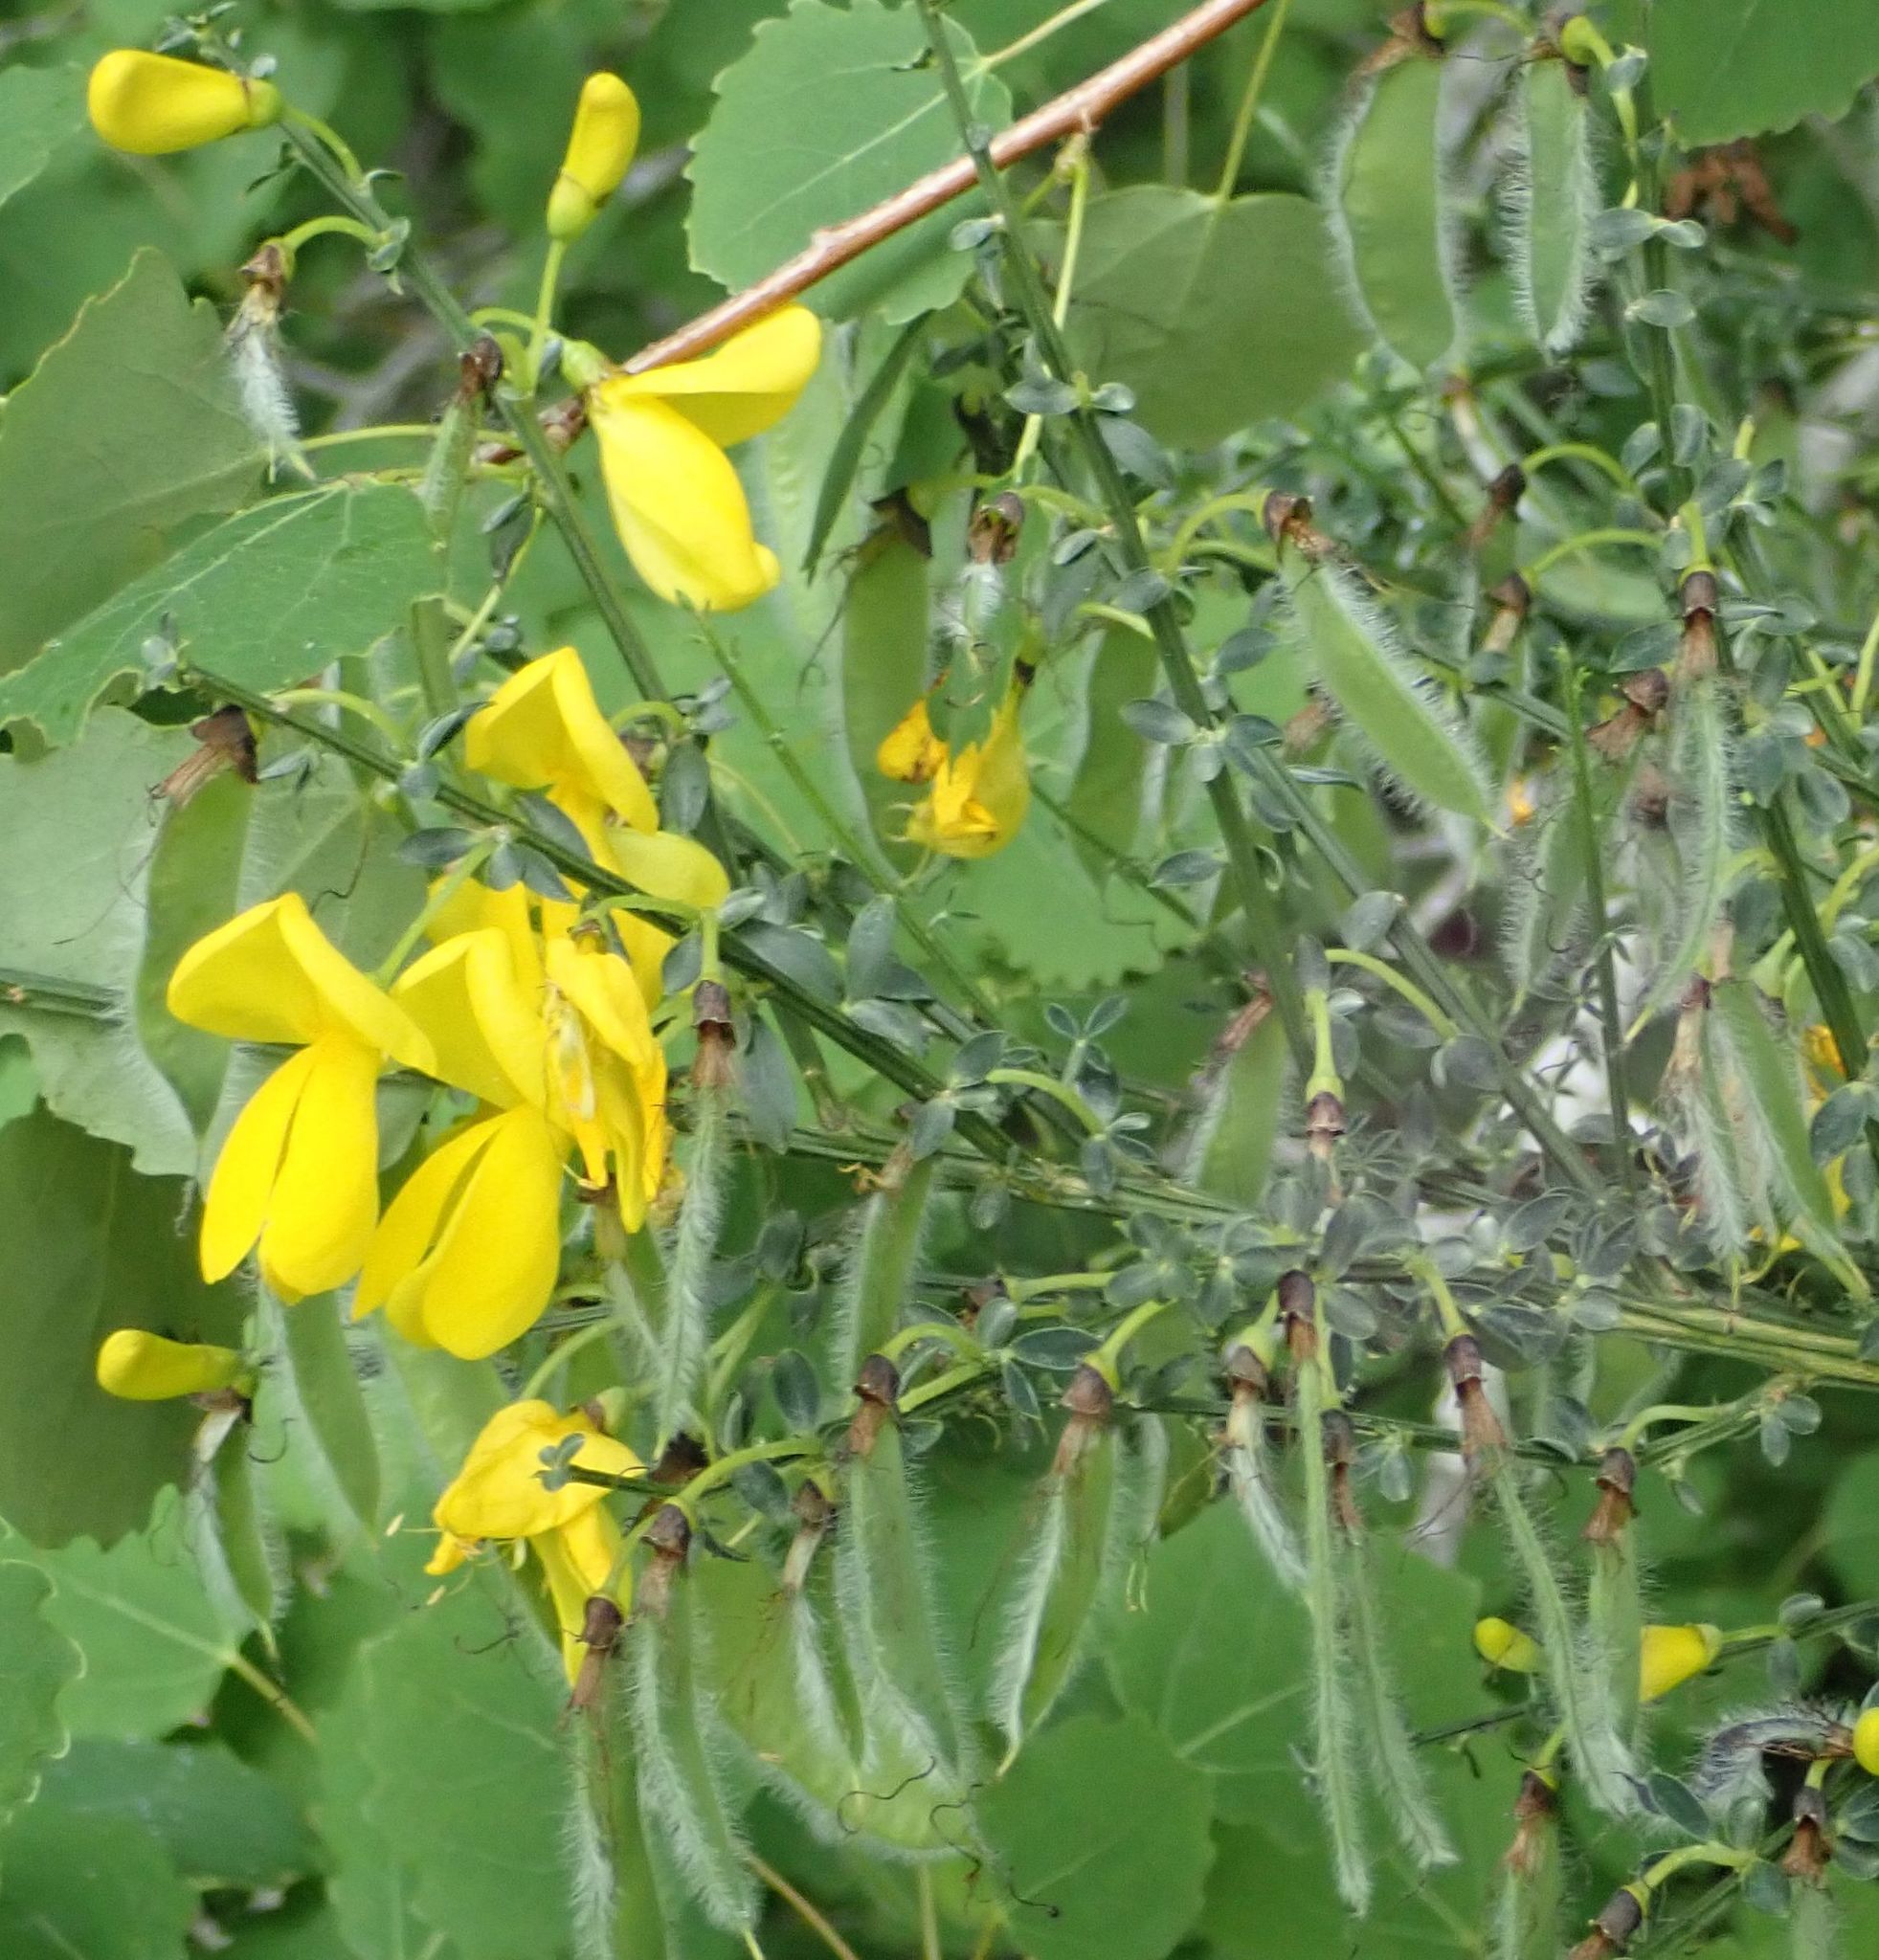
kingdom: Plantae
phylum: Tracheophyta
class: Magnoliopsida
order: Fabales
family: Fabaceae
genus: Cytisus
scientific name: Cytisus scoparius
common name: Scotch broom
